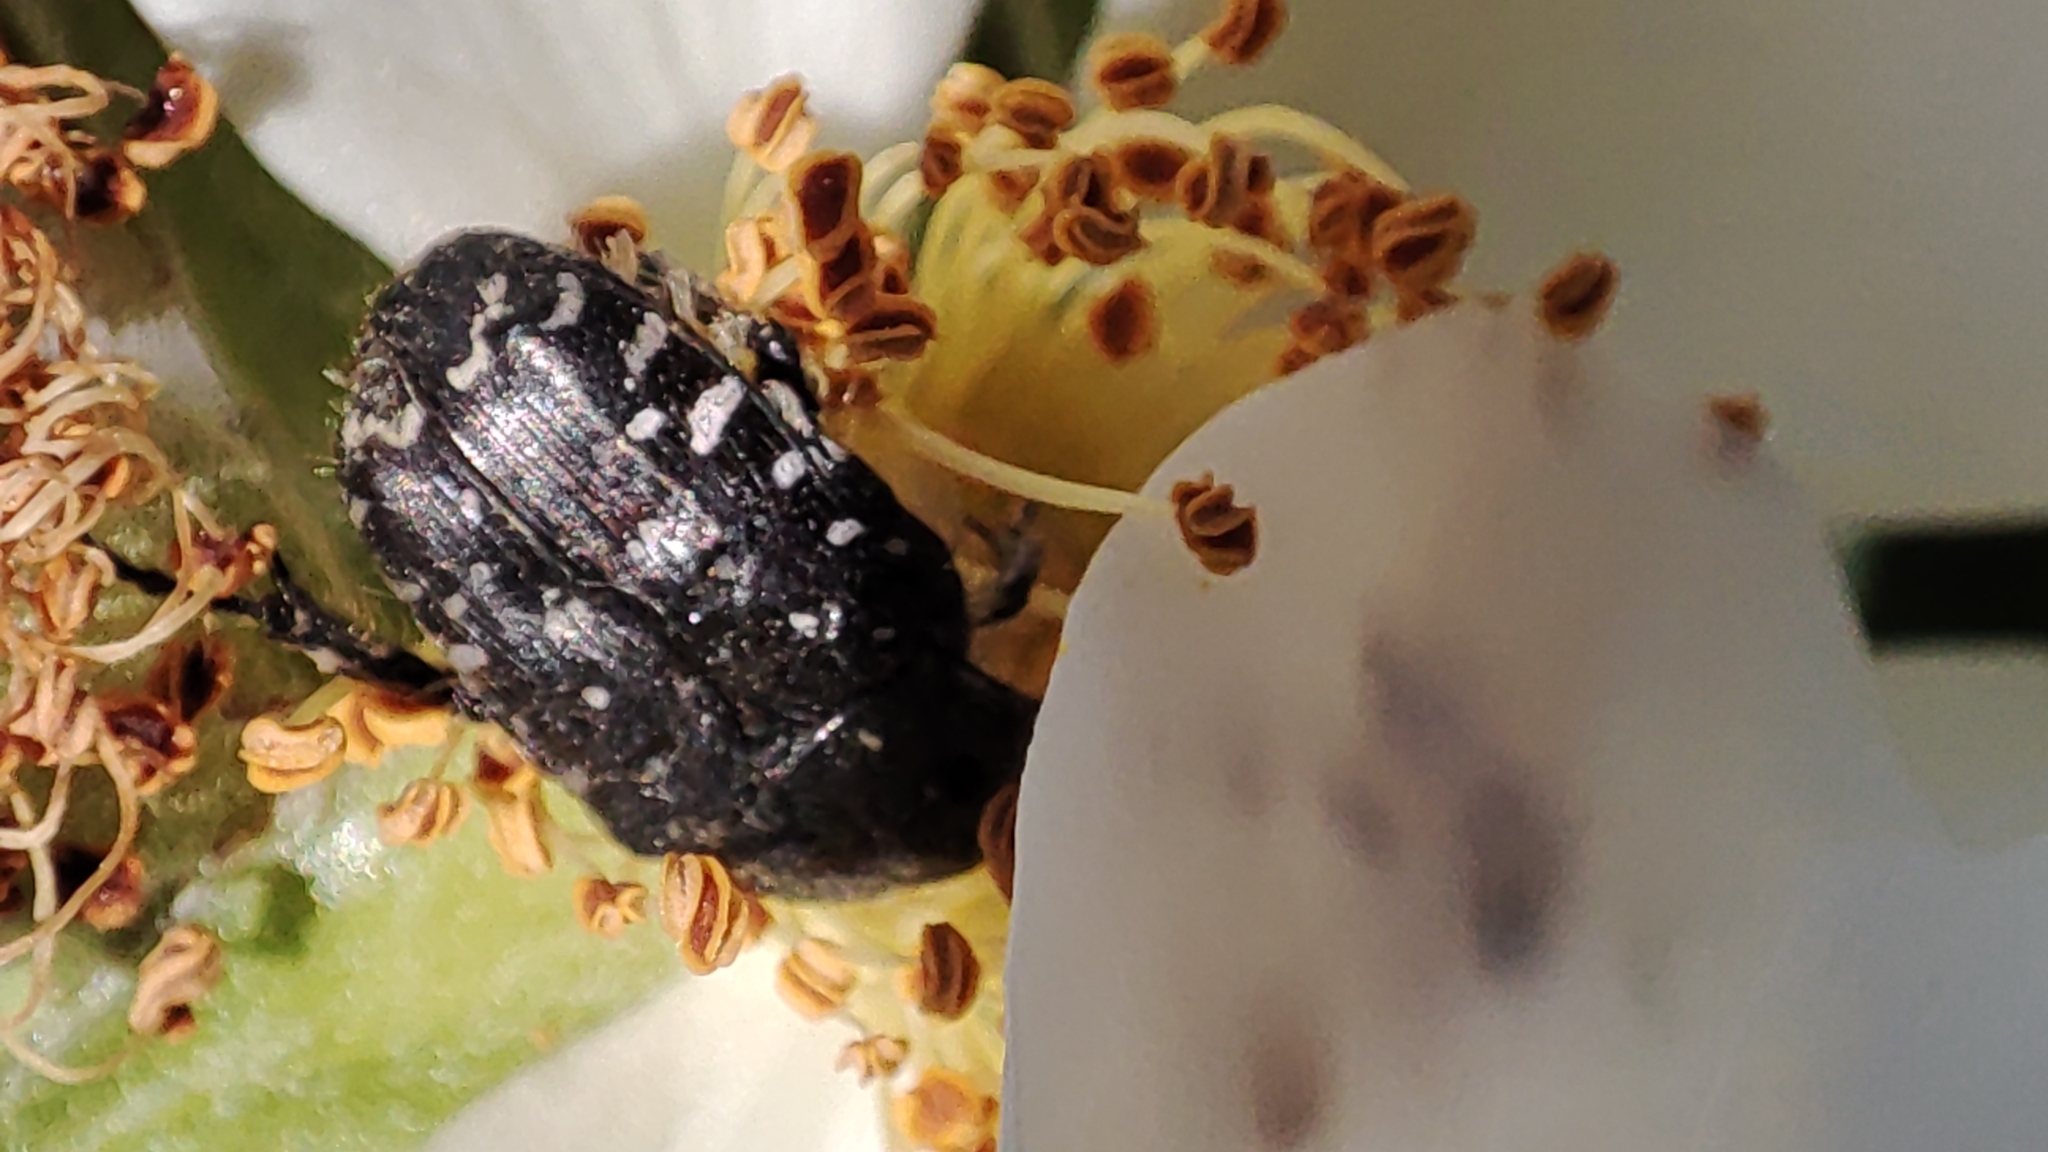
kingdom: Animalia
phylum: Arthropoda
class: Insecta
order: Coleoptera
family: Scarabaeidae
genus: Oxythyrea
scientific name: Oxythyrea funesta
